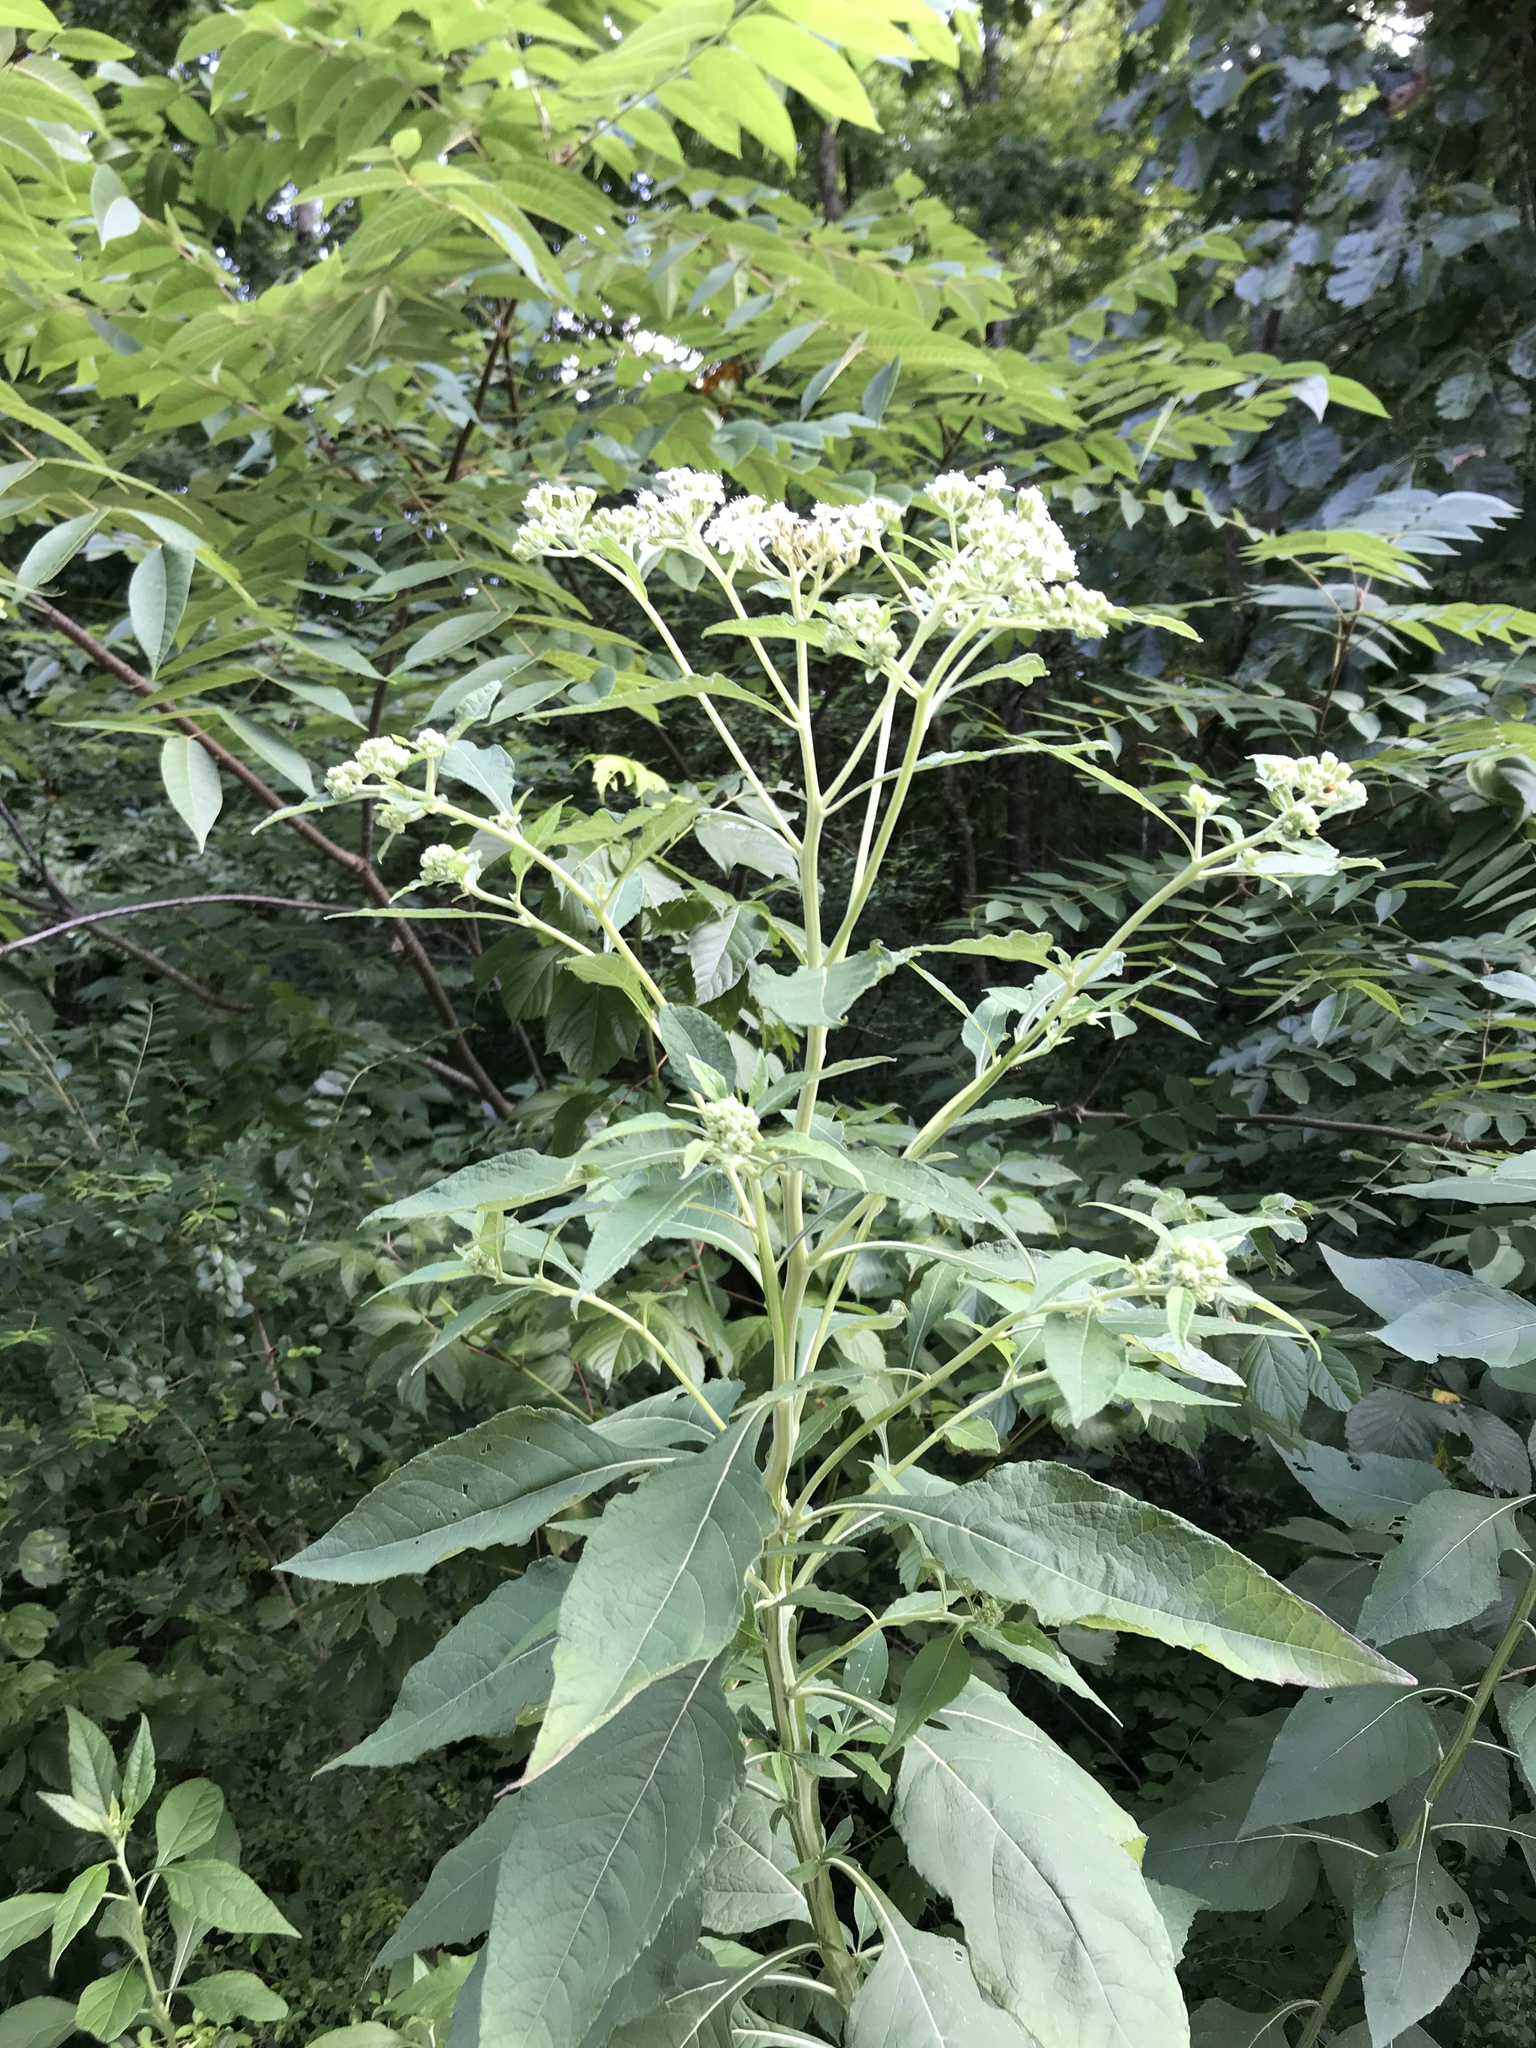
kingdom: Plantae
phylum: Tracheophyta
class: Magnoliopsida
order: Asterales
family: Asteraceae
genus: Verbesina
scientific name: Verbesina virginica
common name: Frostweed
